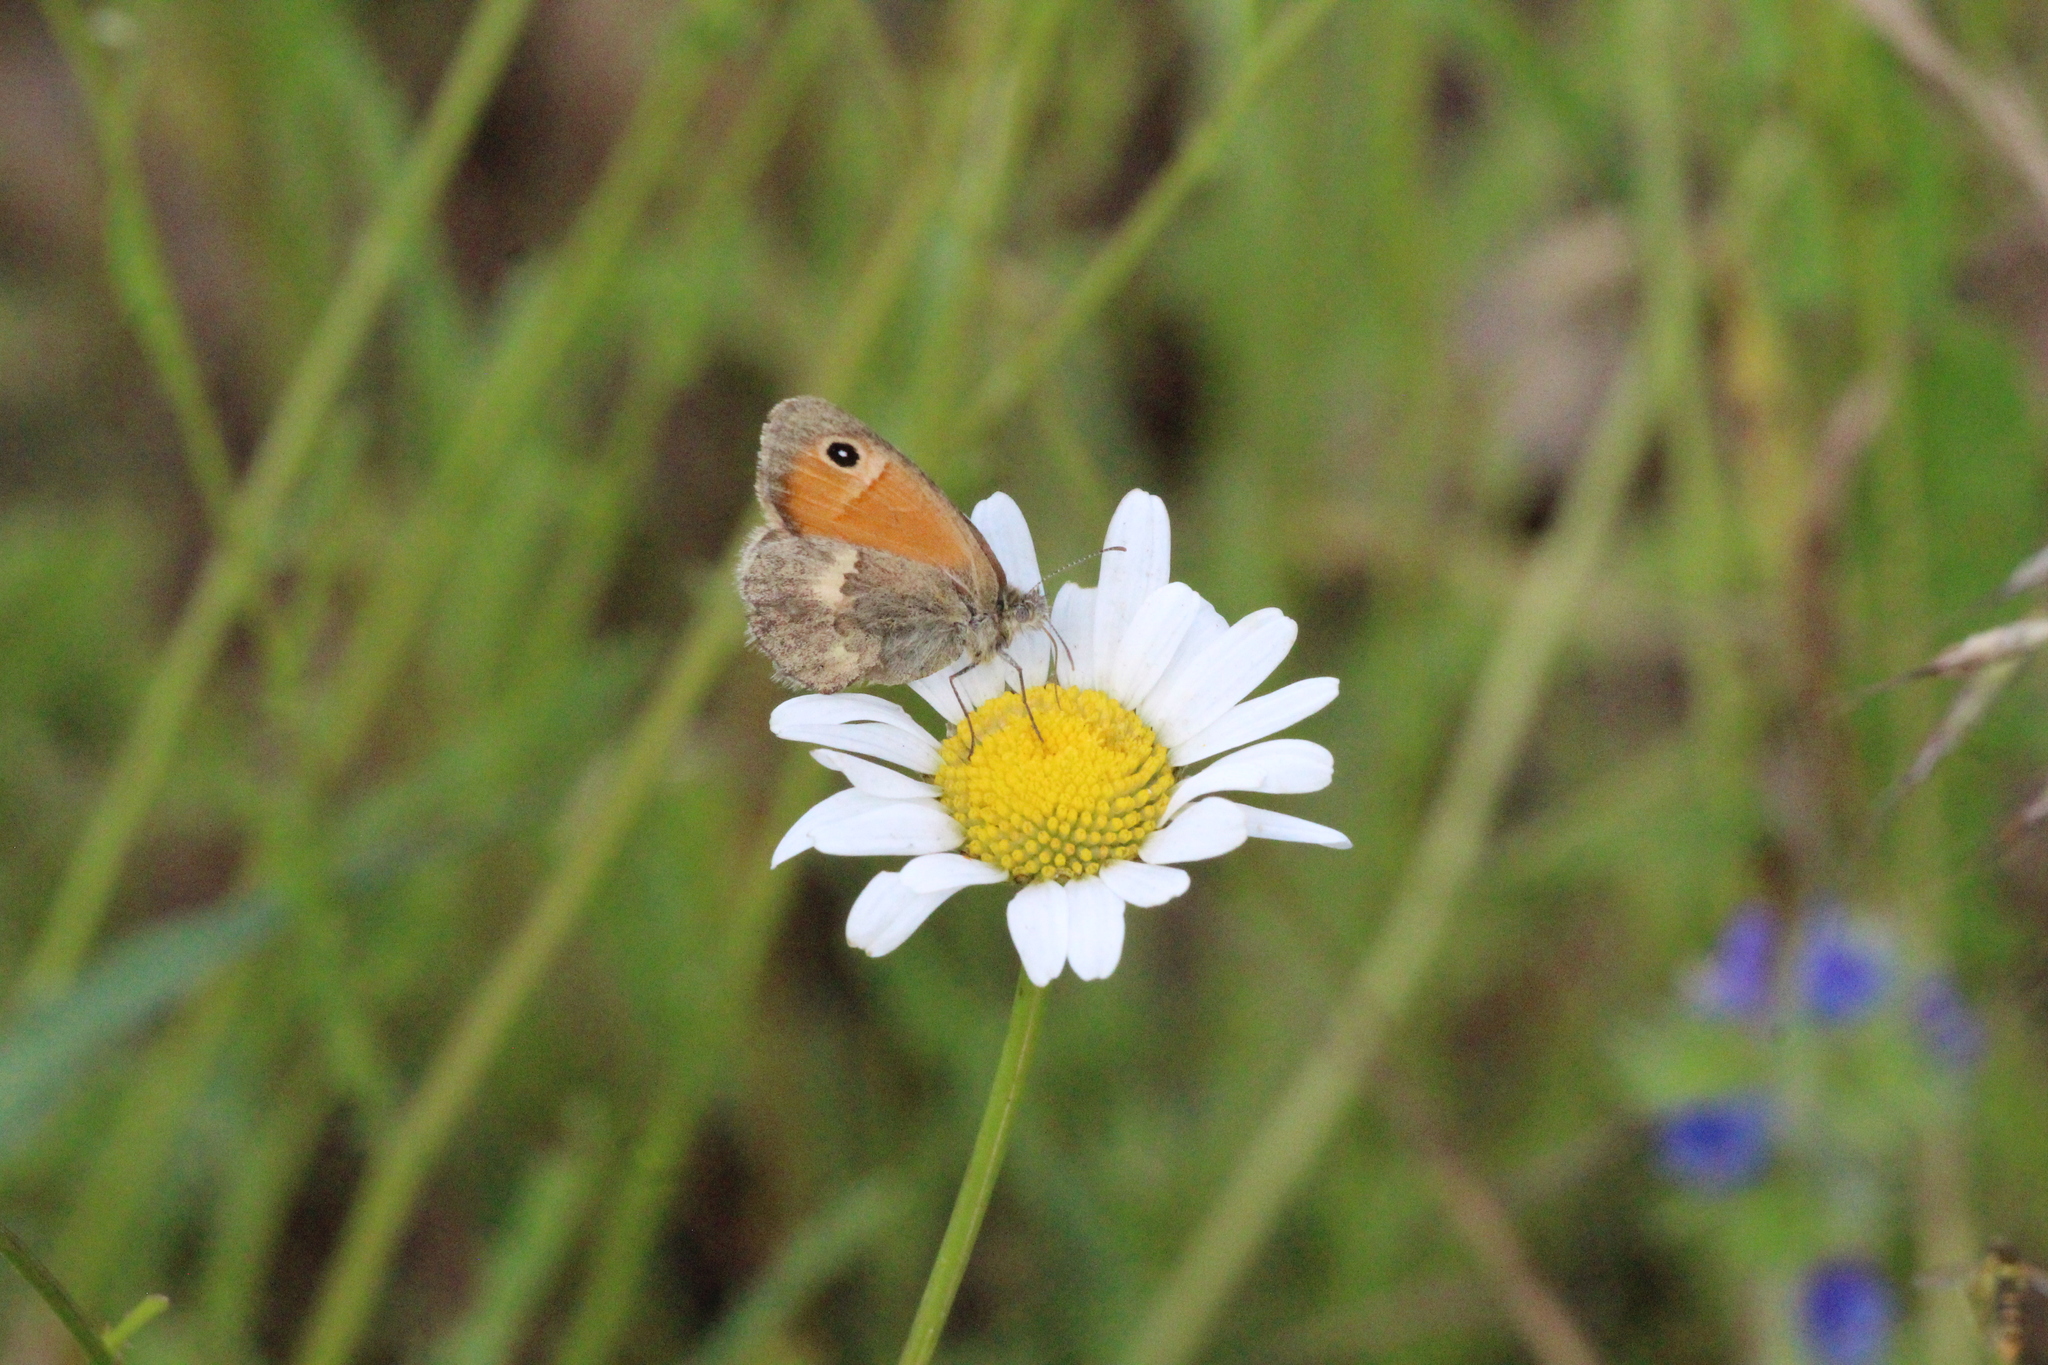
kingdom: Animalia
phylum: Arthropoda
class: Insecta
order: Lepidoptera
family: Nymphalidae
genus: Coenonympha
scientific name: Coenonympha pamphilus
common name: Small heath
